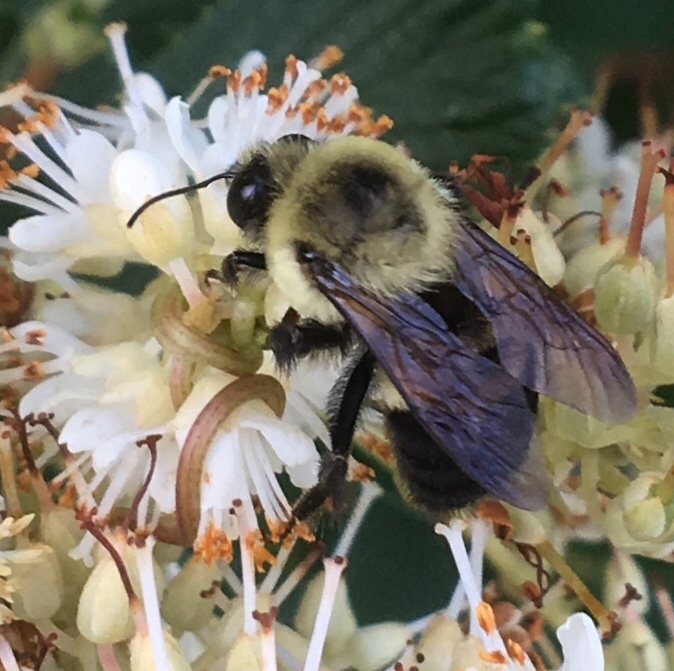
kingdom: Animalia
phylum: Arthropoda
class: Insecta
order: Hymenoptera
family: Apidae
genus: Bombus
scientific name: Bombus griseocollis
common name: Brown-belted bumble bee
